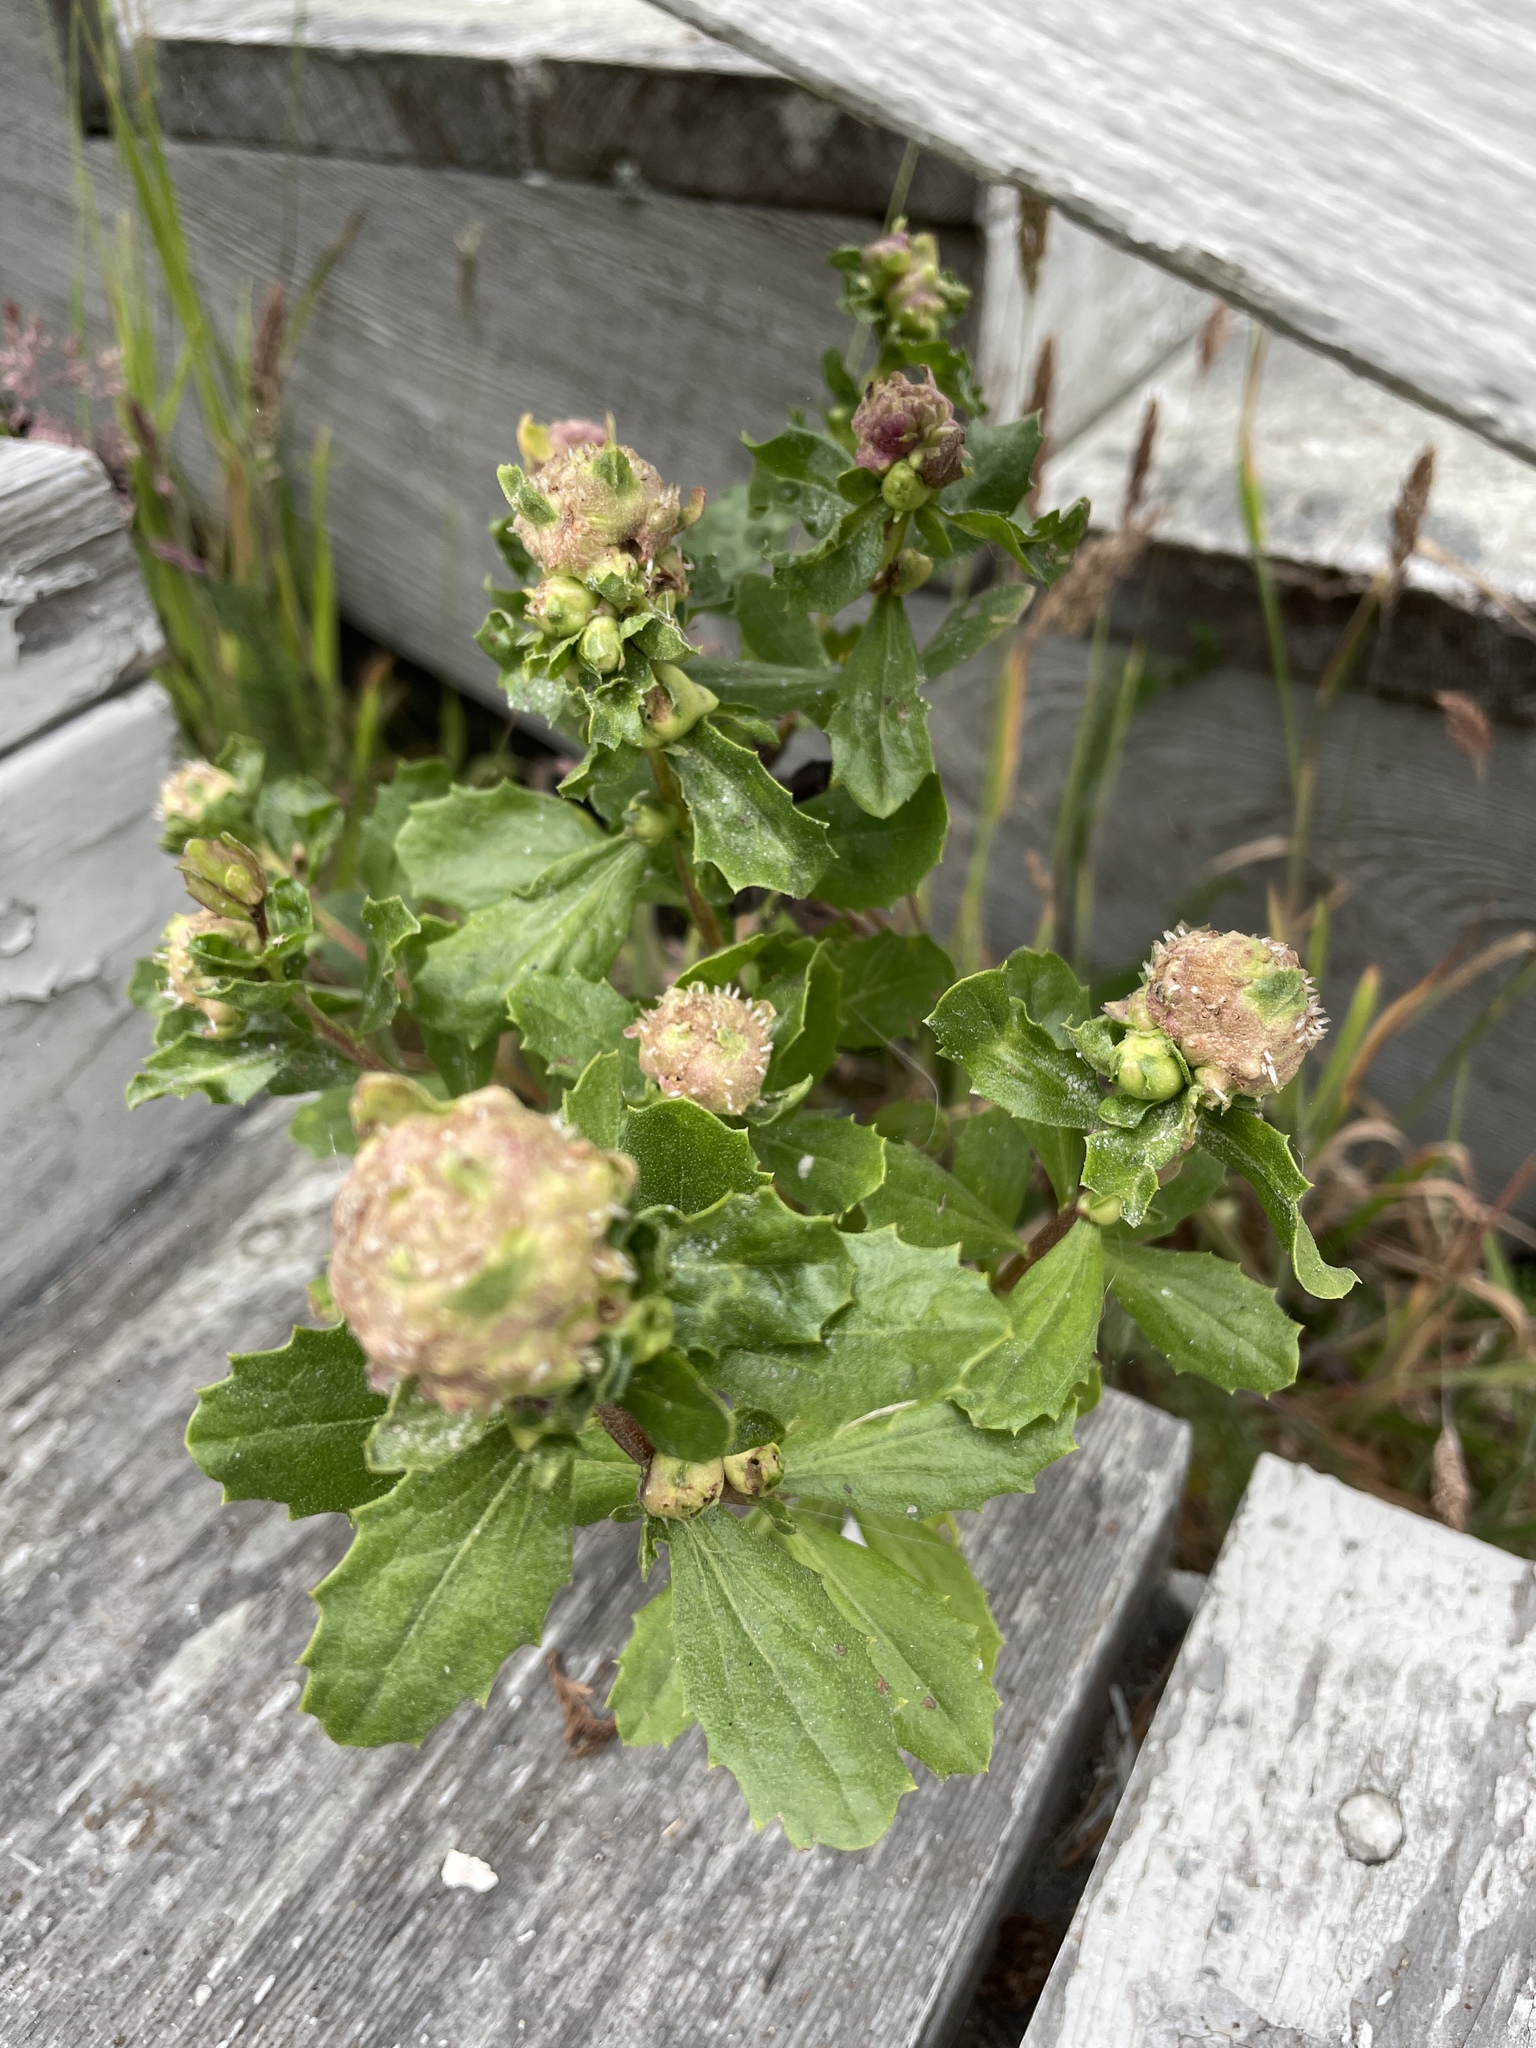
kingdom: Animalia
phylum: Arthropoda
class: Insecta
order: Diptera
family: Cecidomyiidae
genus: Rhopalomyia
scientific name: Rhopalomyia californica
